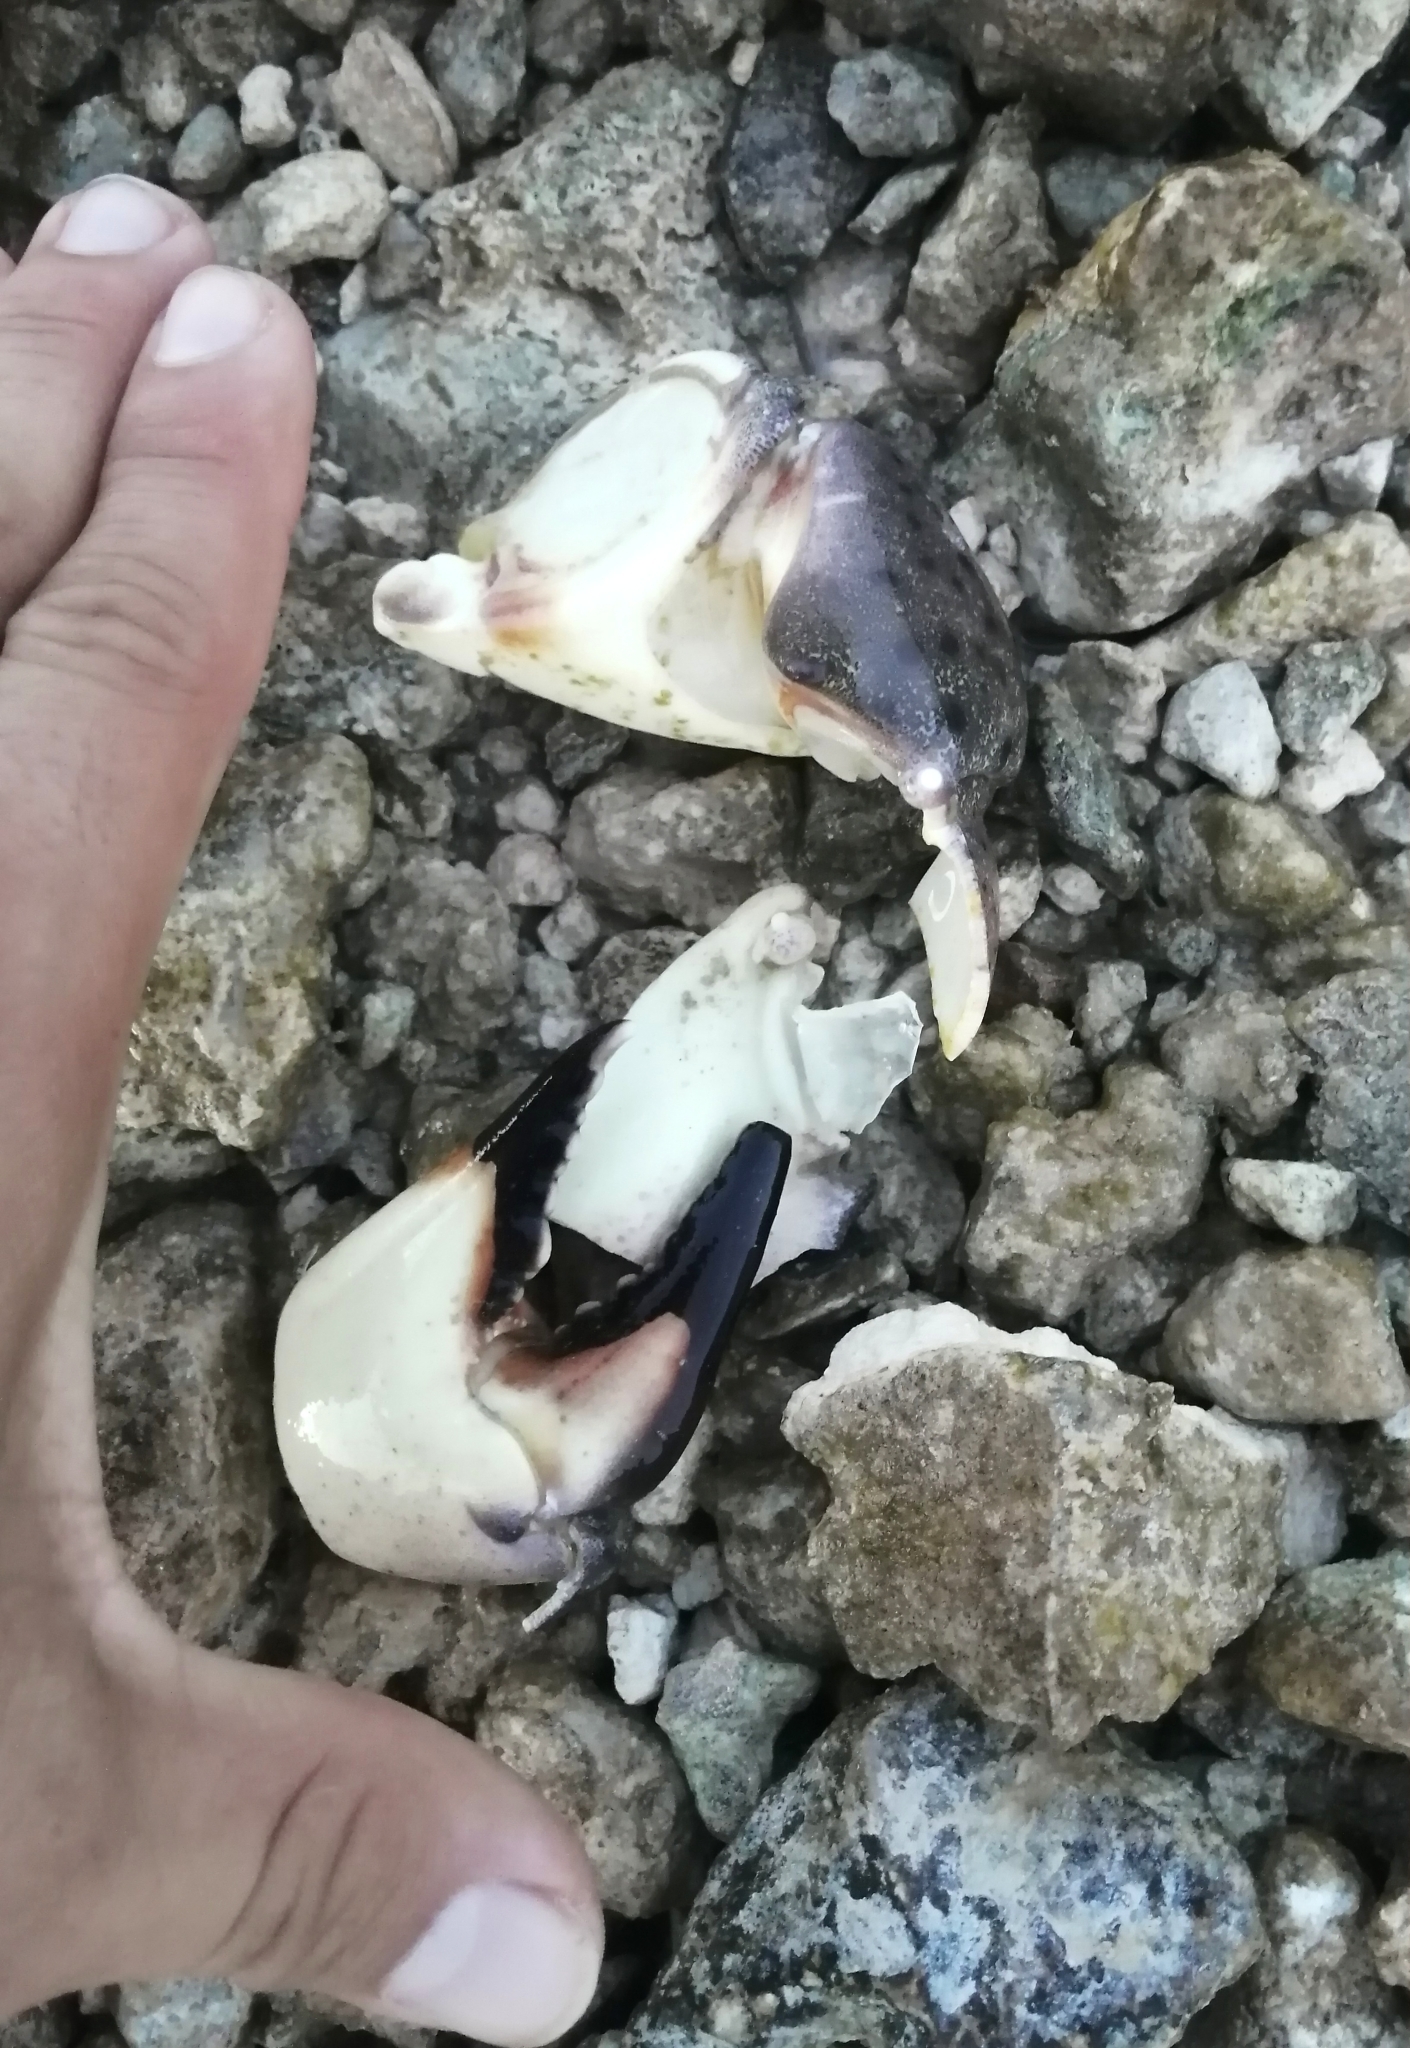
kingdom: Animalia
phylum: Arthropoda
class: Malacostraca
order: Decapoda
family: Menippidae
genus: Menippe
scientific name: Menippe mercenaria
